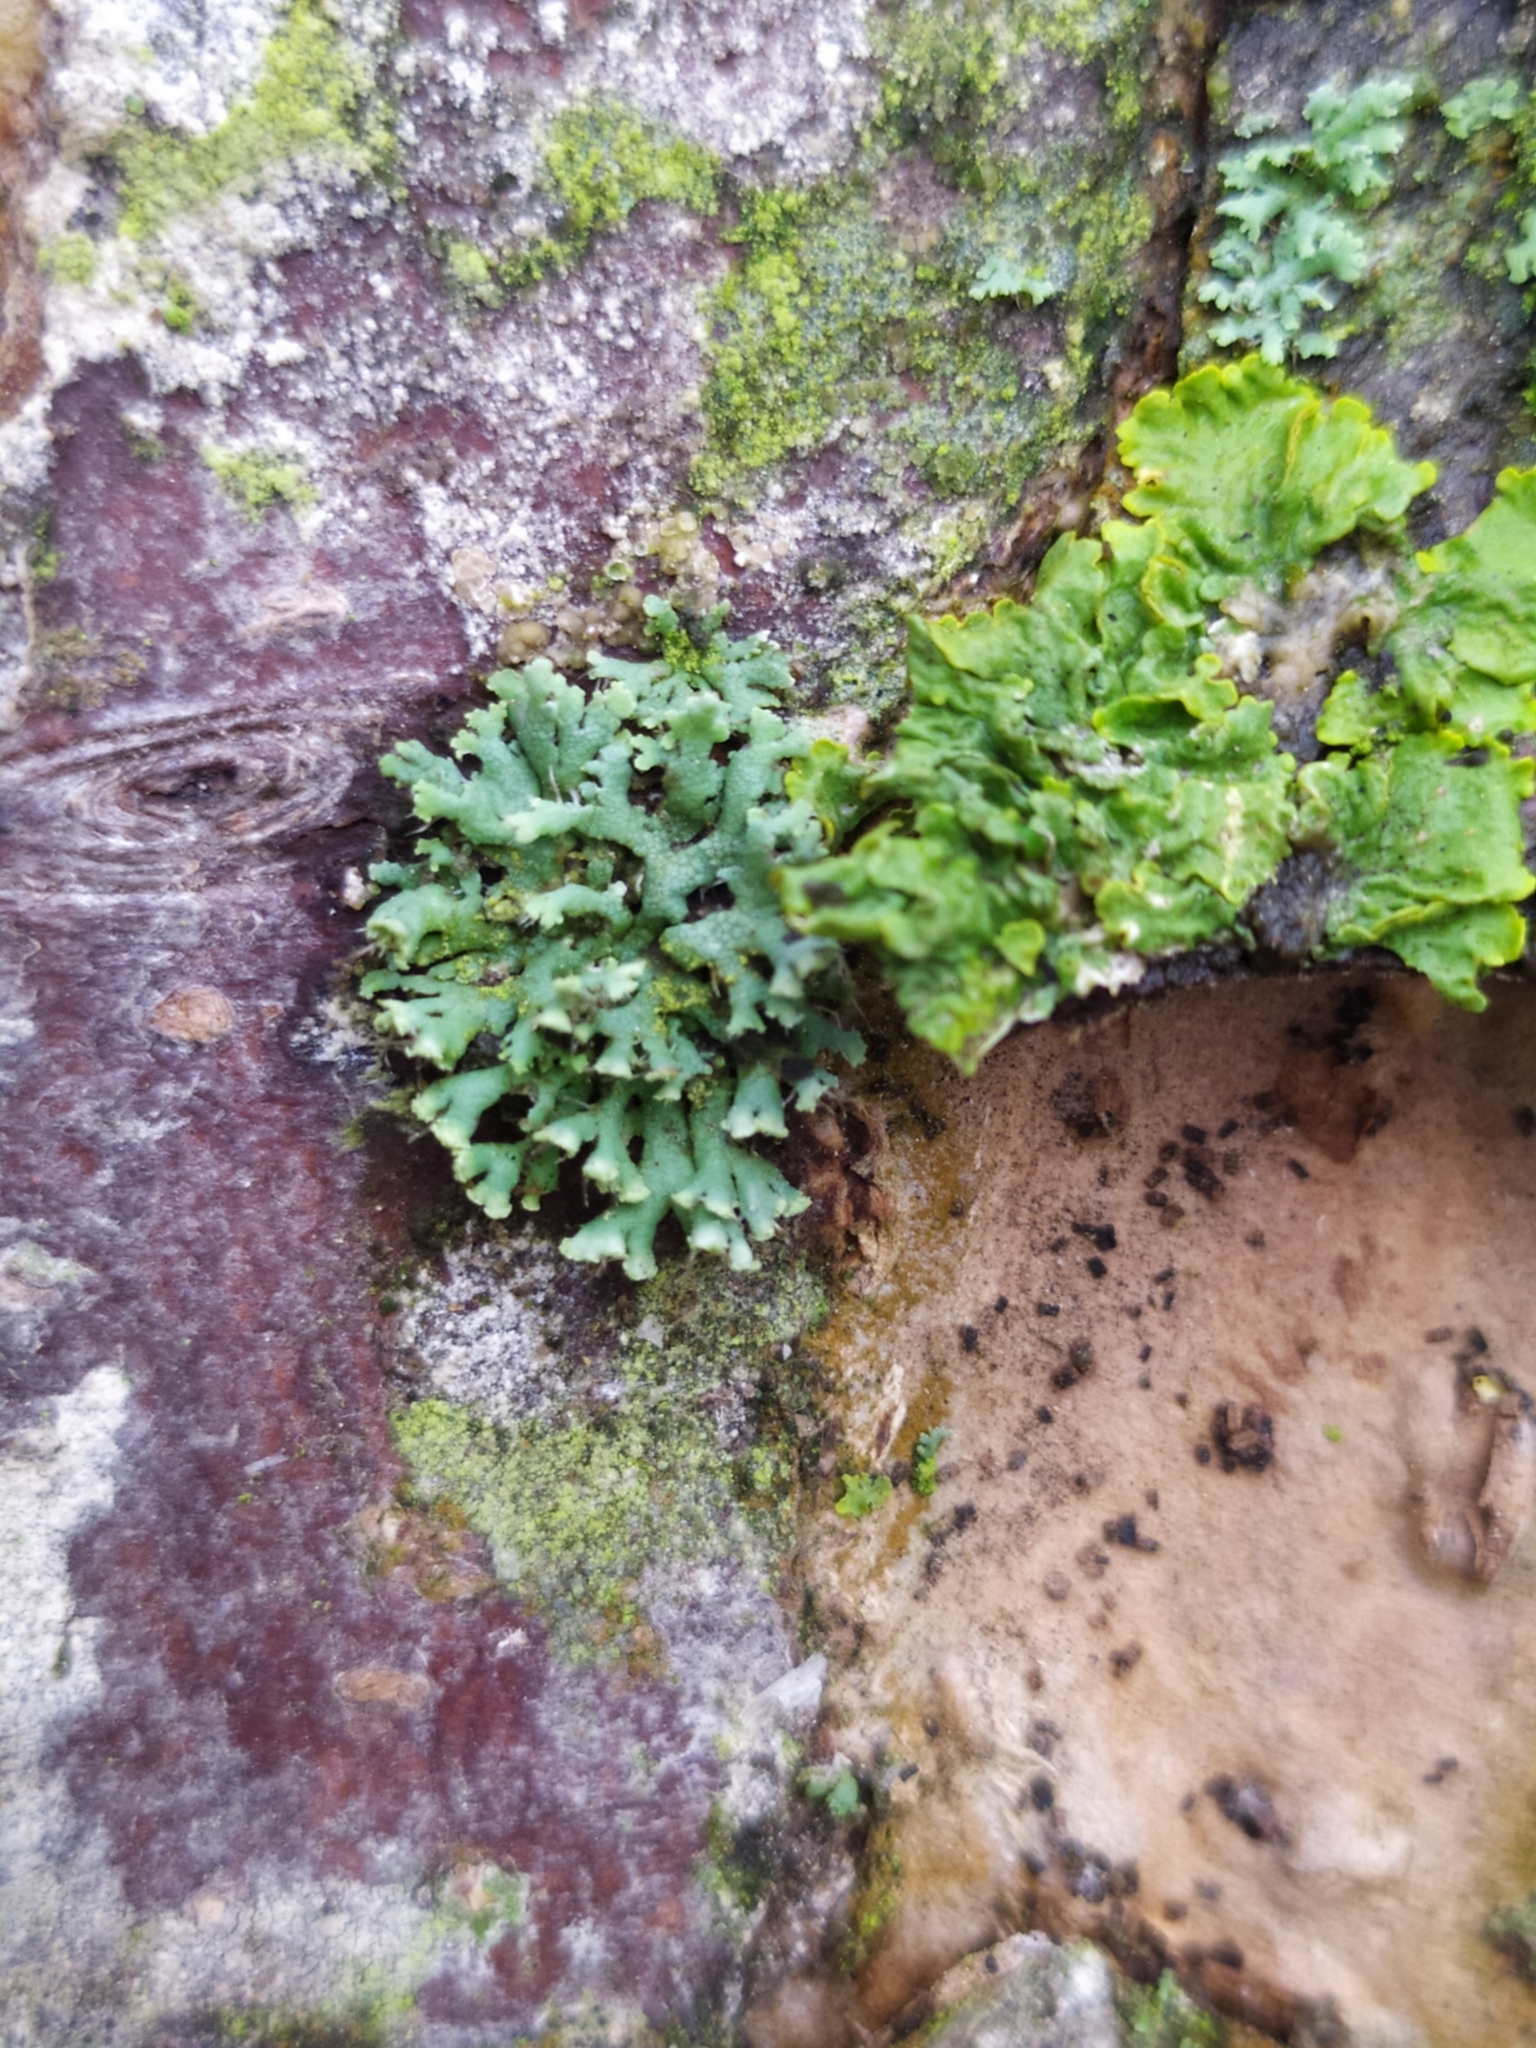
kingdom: Fungi
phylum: Ascomycota
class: Lecanoromycetes
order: Caliciales
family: Physciaceae
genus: Physcia
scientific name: Physcia adscendens
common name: Hooded rosette lichen
